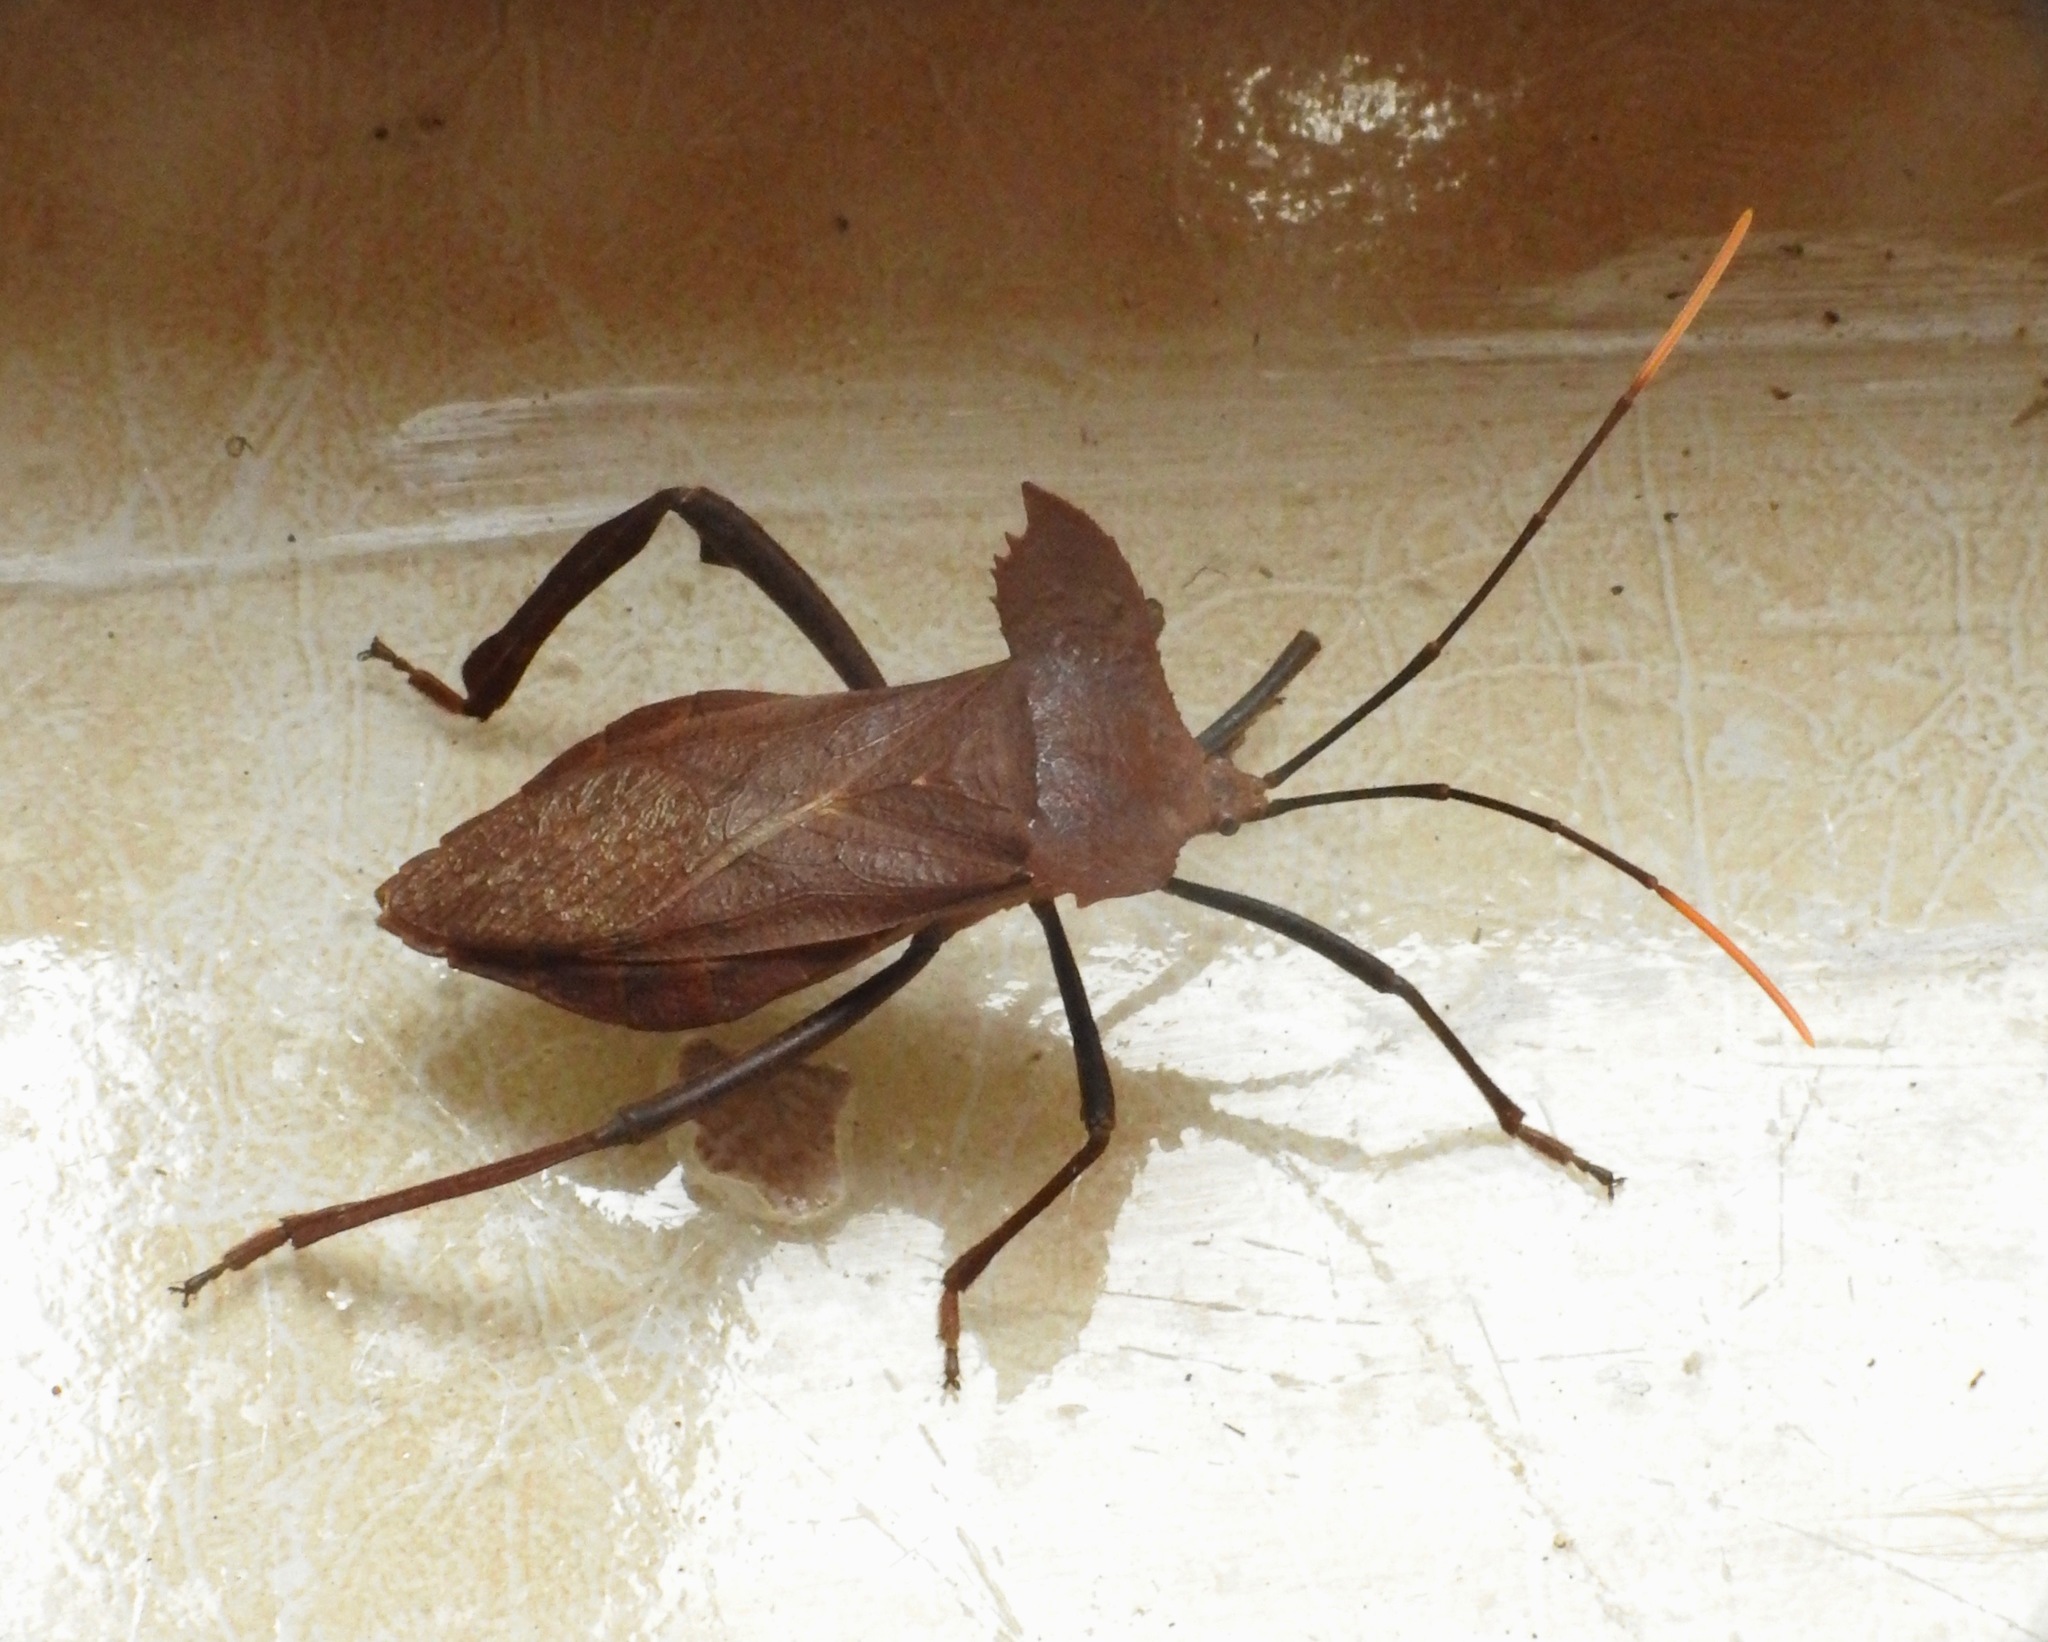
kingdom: Animalia
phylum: Arthropoda
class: Insecta
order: Hemiptera
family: Coreidae
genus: Notopteryx
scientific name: Notopteryx soror
